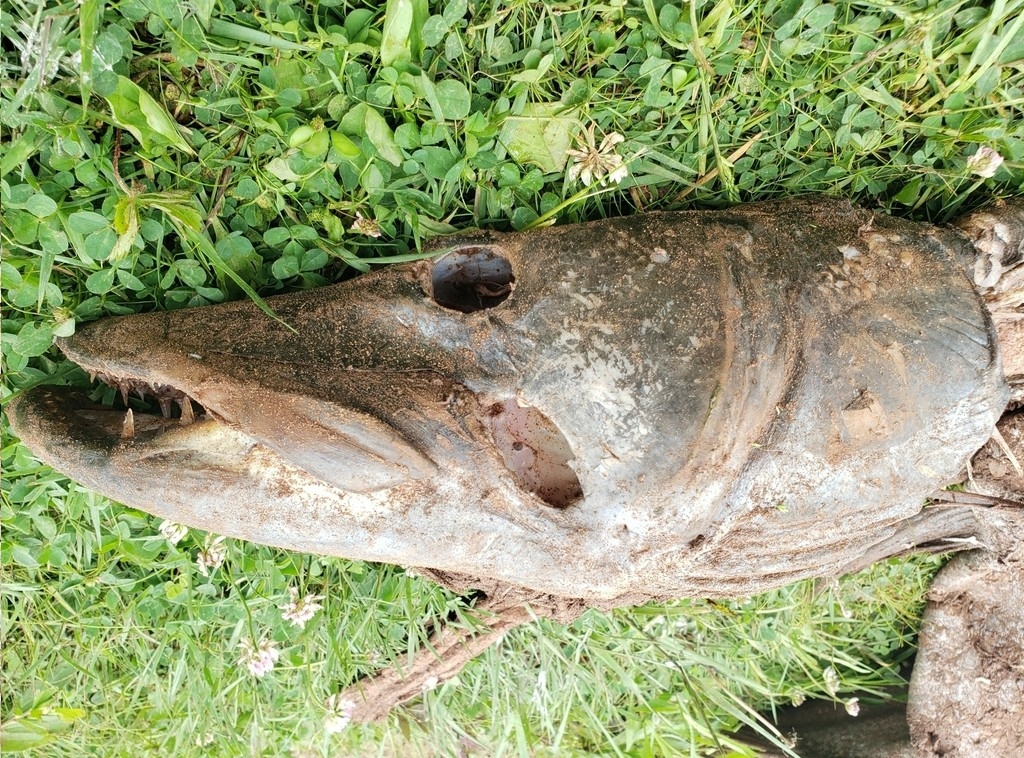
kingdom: Animalia
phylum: Chordata
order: Esociformes
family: Esocidae
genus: Esox
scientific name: Esox masquinongy
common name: Muskellunge
